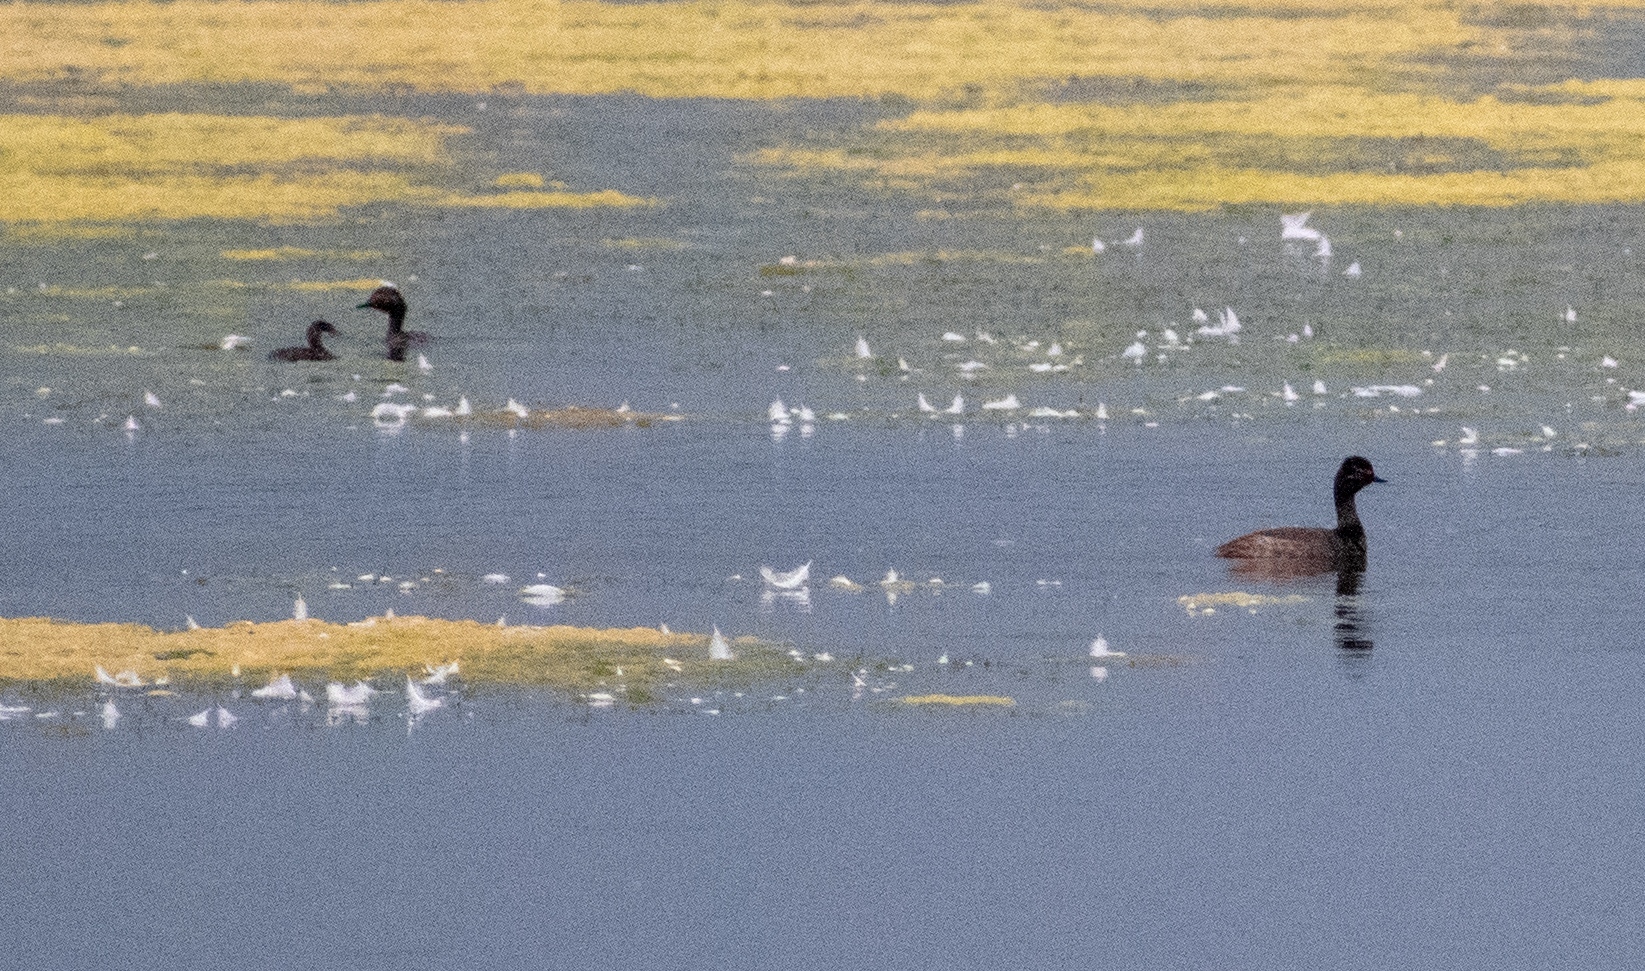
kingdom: Animalia
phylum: Chordata
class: Aves
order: Podicipediformes
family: Podicipedidae
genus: Podiceps
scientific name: Podiceps nigricollis
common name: Black-necked grebe
